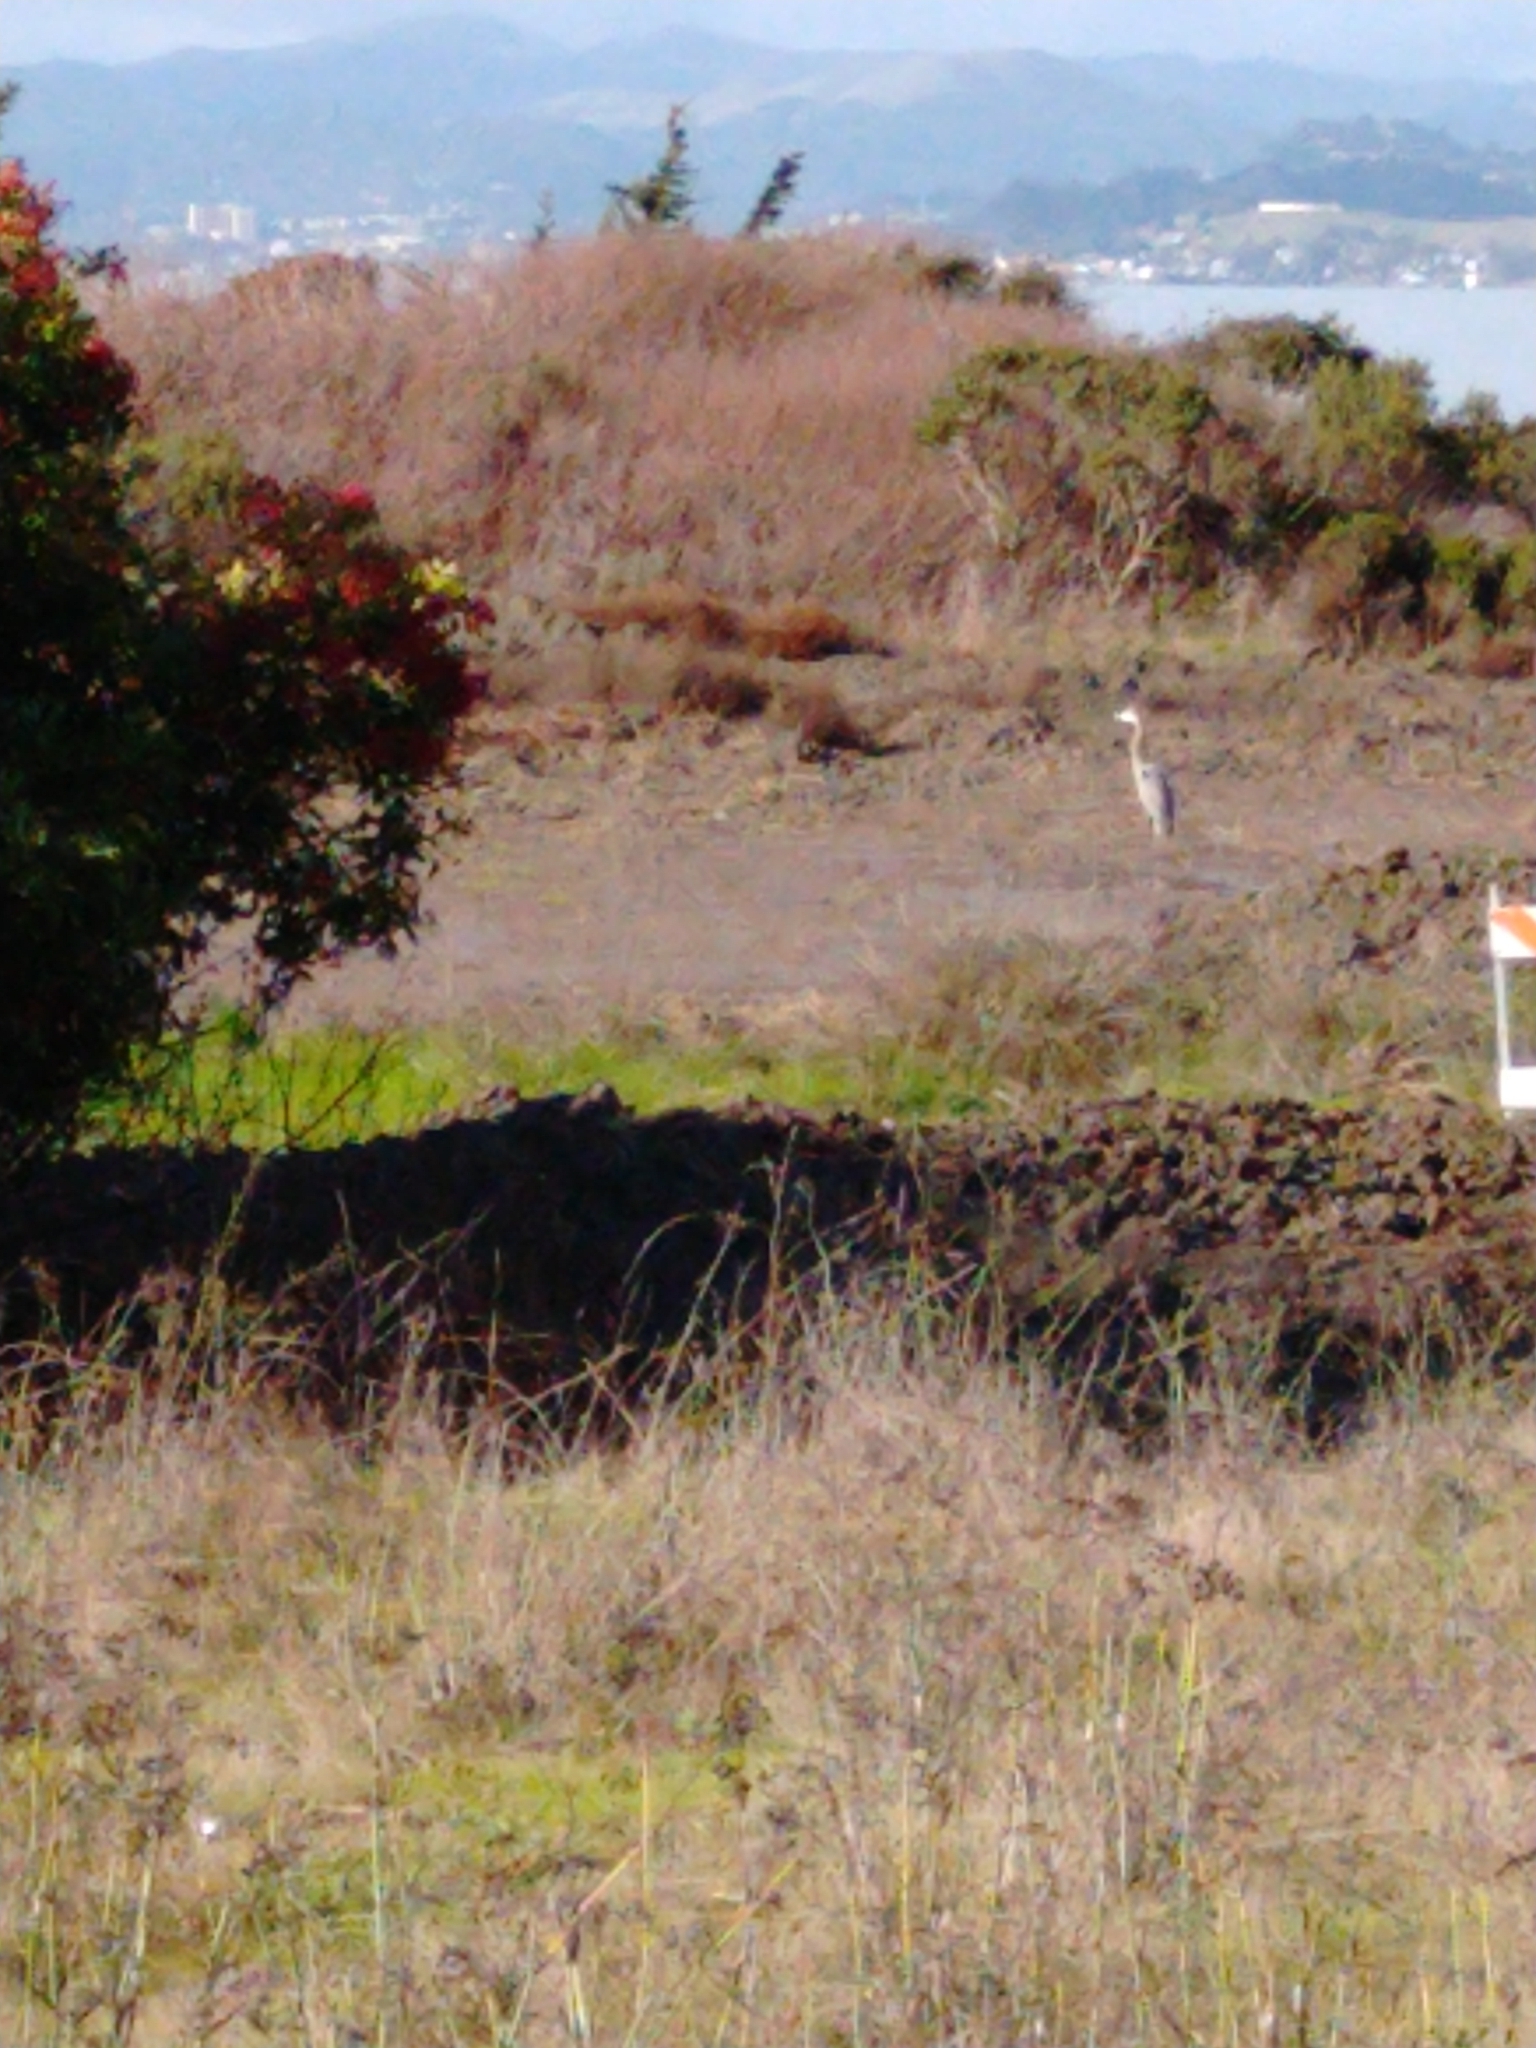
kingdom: Animalia
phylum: Chordata
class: Aves
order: Pelecaniformes
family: Ardeidae
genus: Ardea
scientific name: Ardea herodias
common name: Great blue heron
